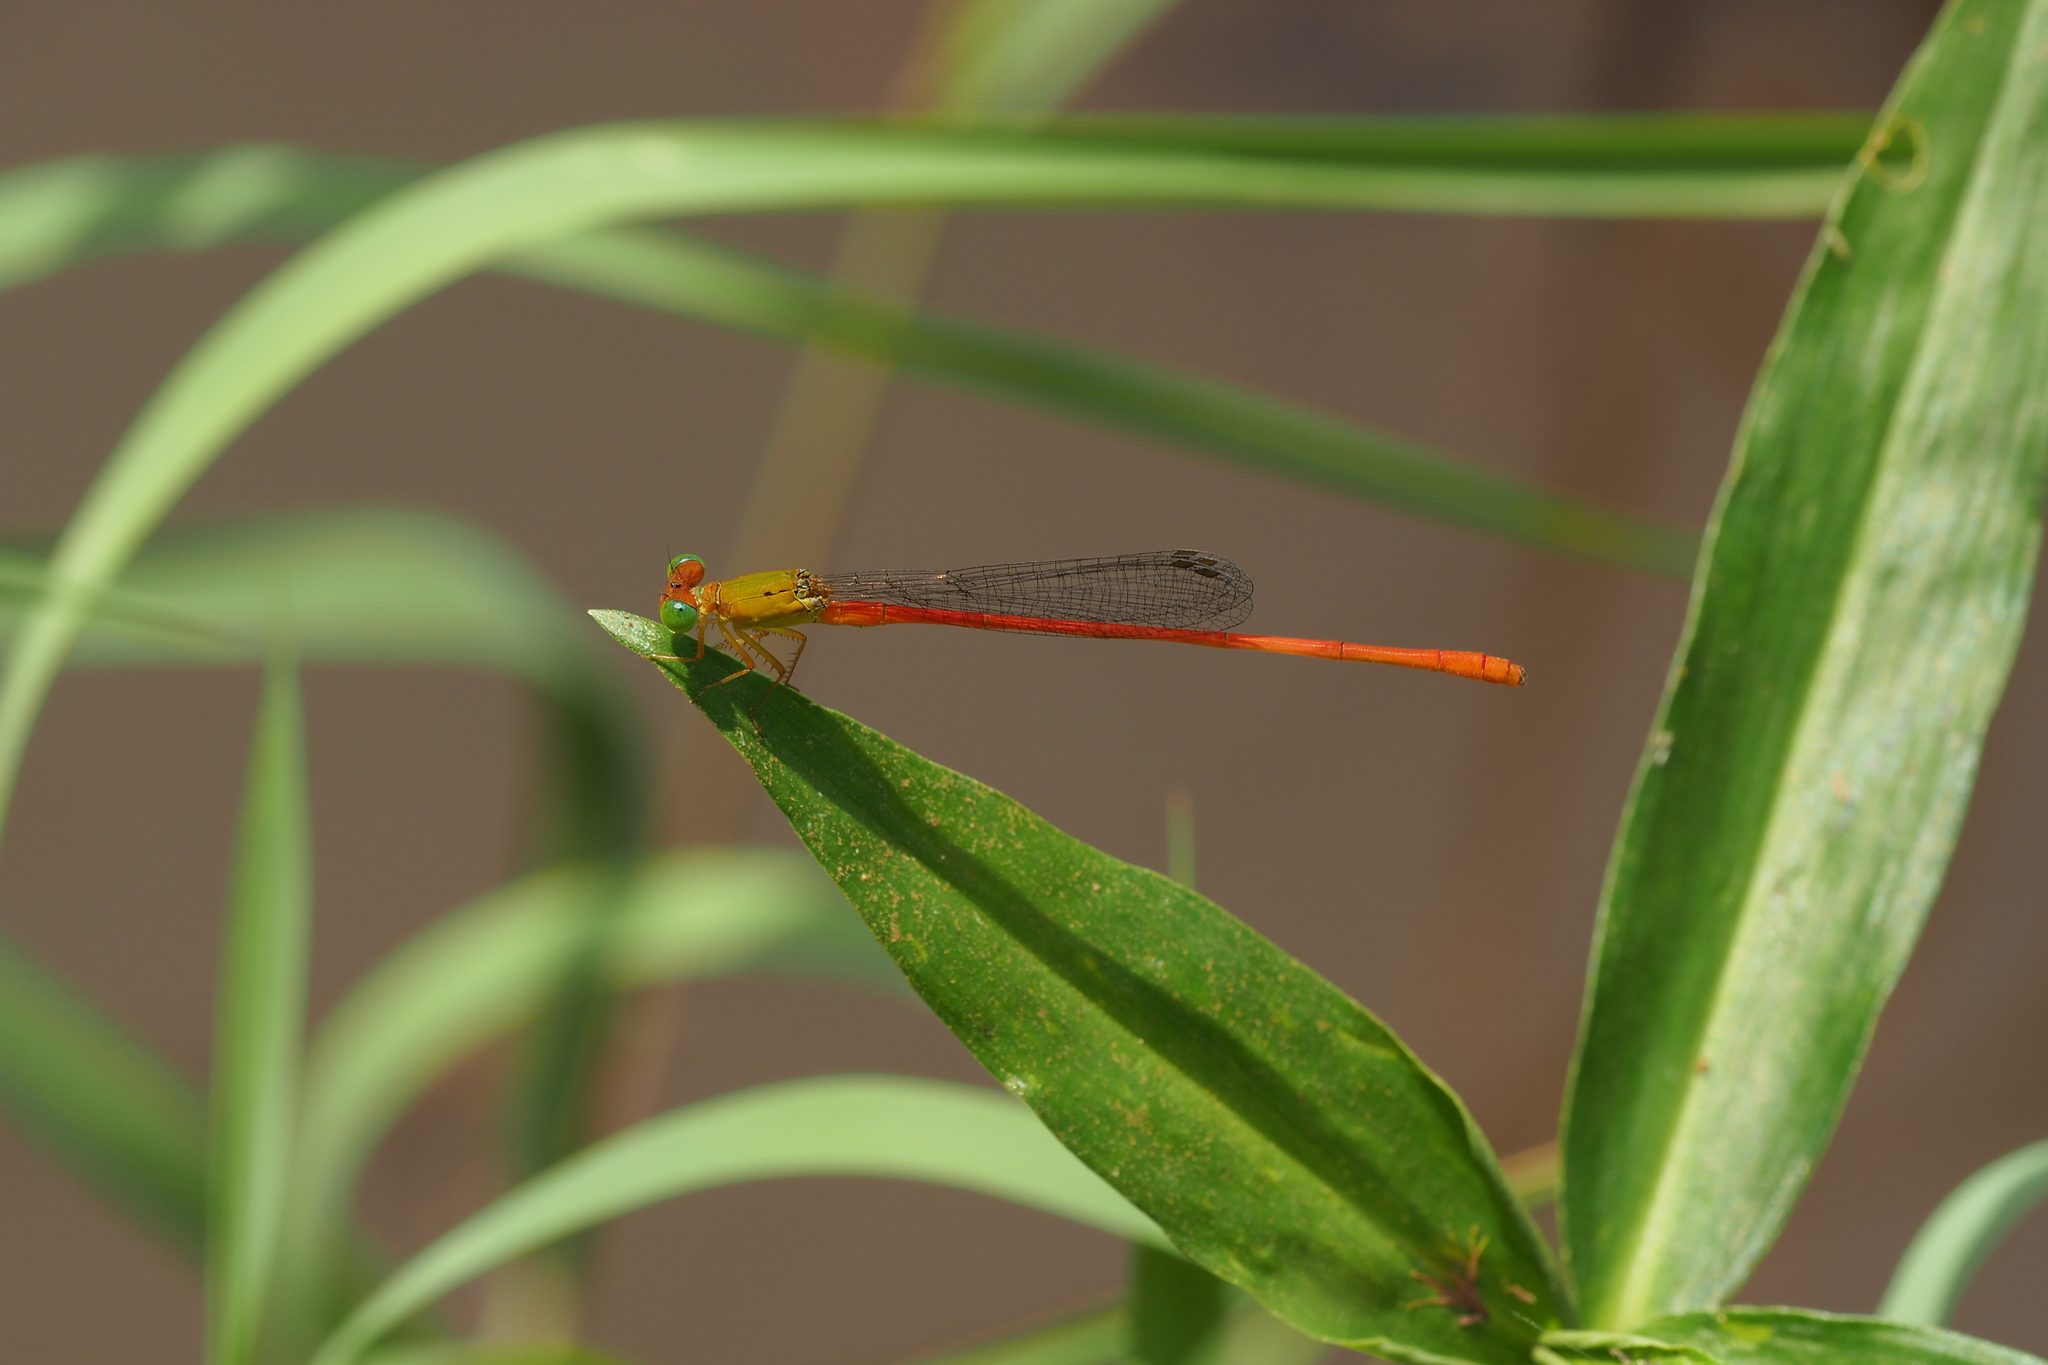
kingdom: Animalia
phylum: Arthropoda
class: Insecta
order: Odonata
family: Coenagrionidae
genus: Ceriagrion
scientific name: Ceriagrion auranticum
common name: Orange-tailed sprite
